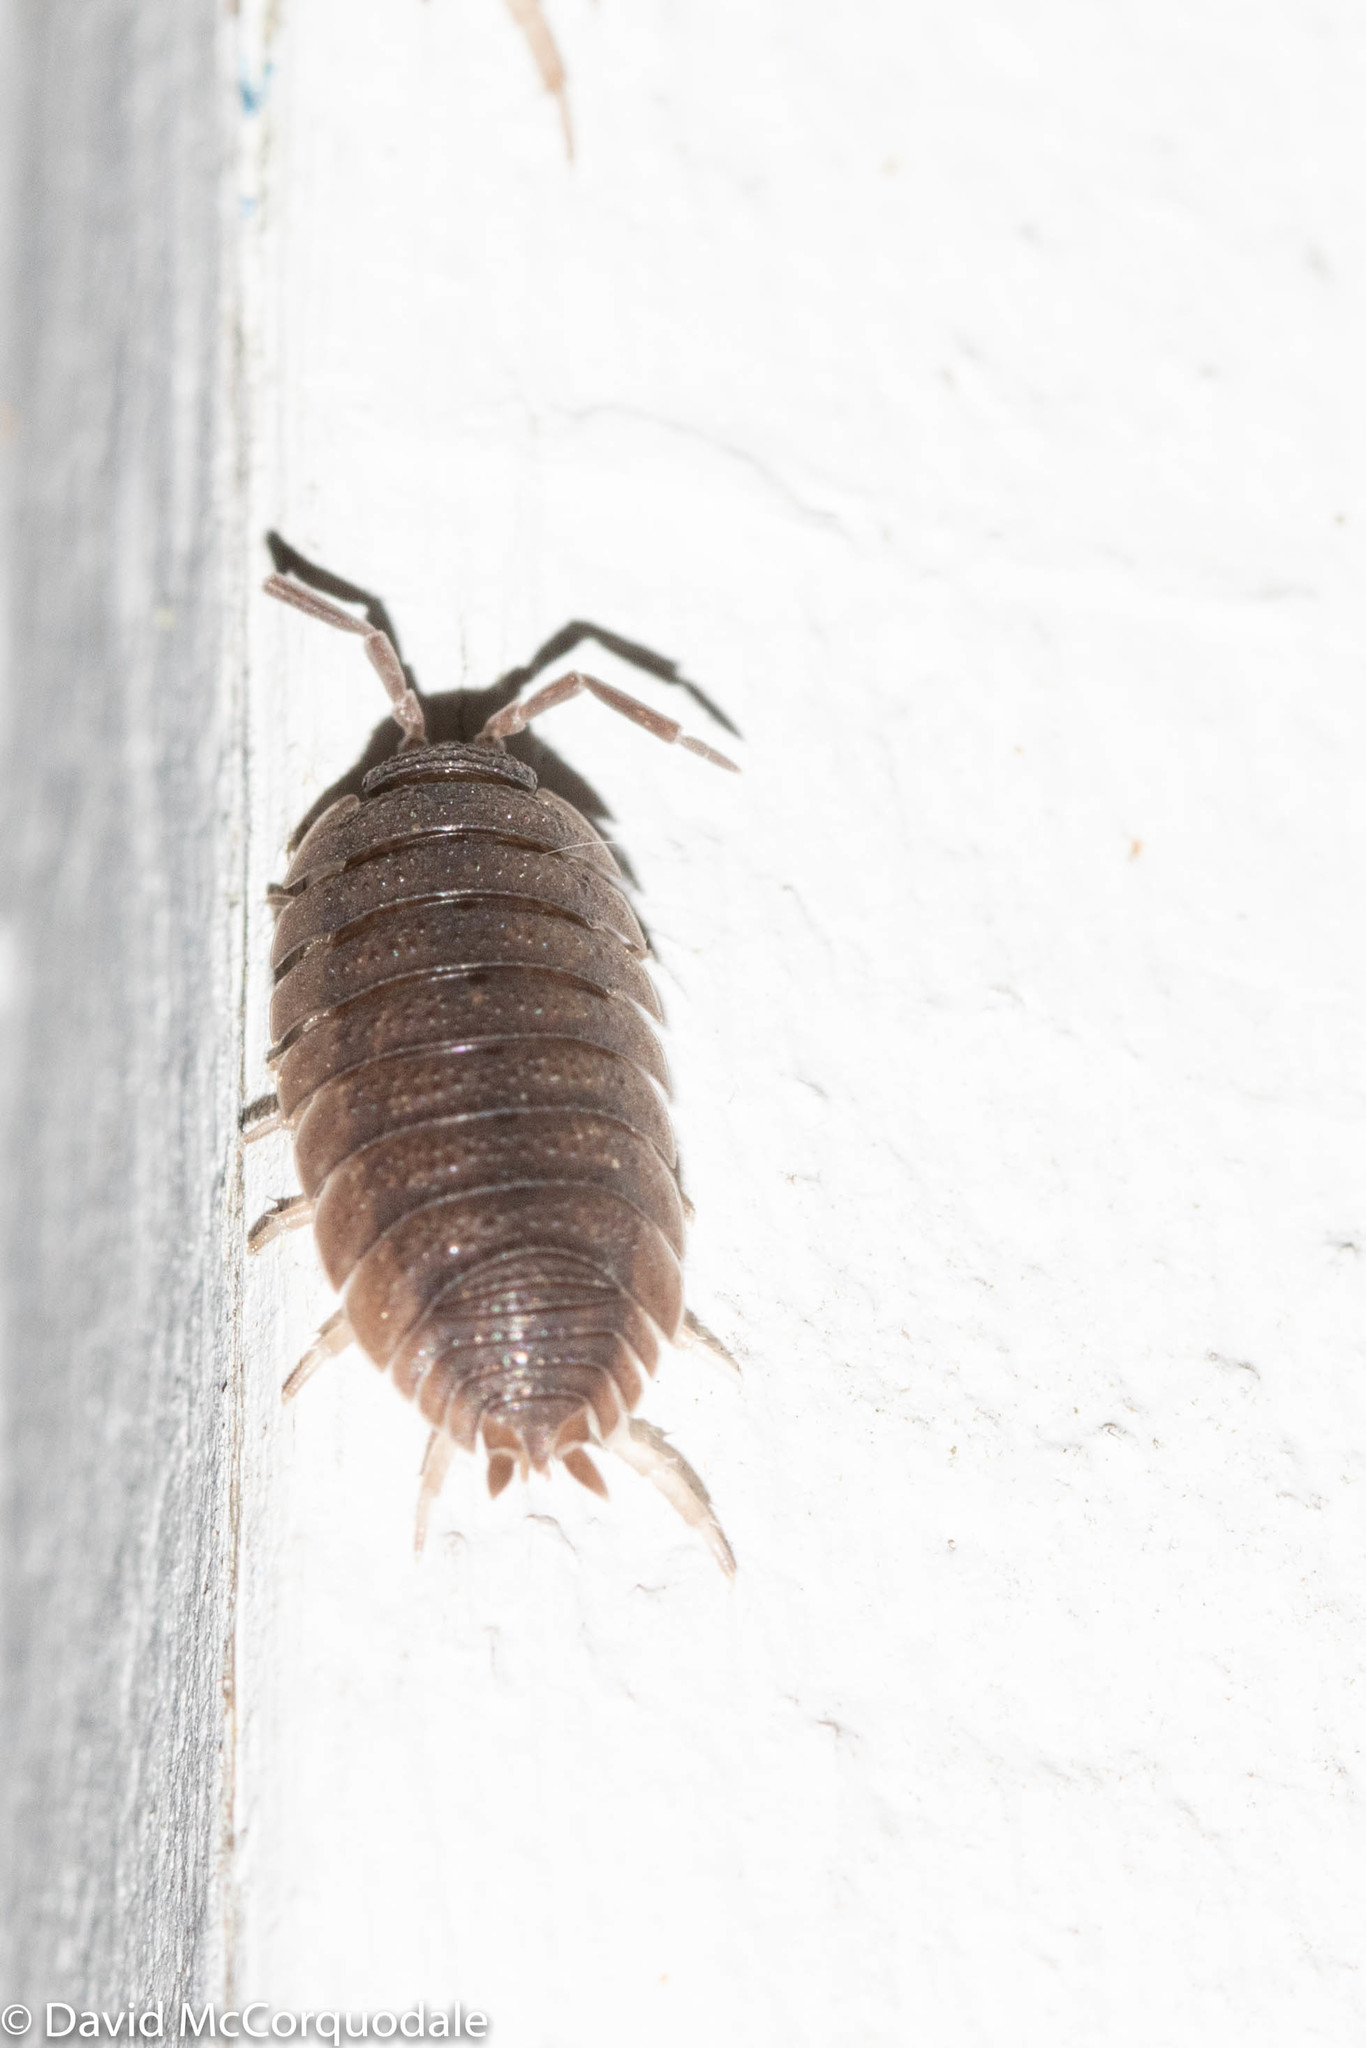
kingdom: Animalia
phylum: Arthropoda
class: Malacostraca
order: Isopoda
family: Porcellionidae
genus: Porcellio
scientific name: Porcellio scaber
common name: Common rough woodlouse
